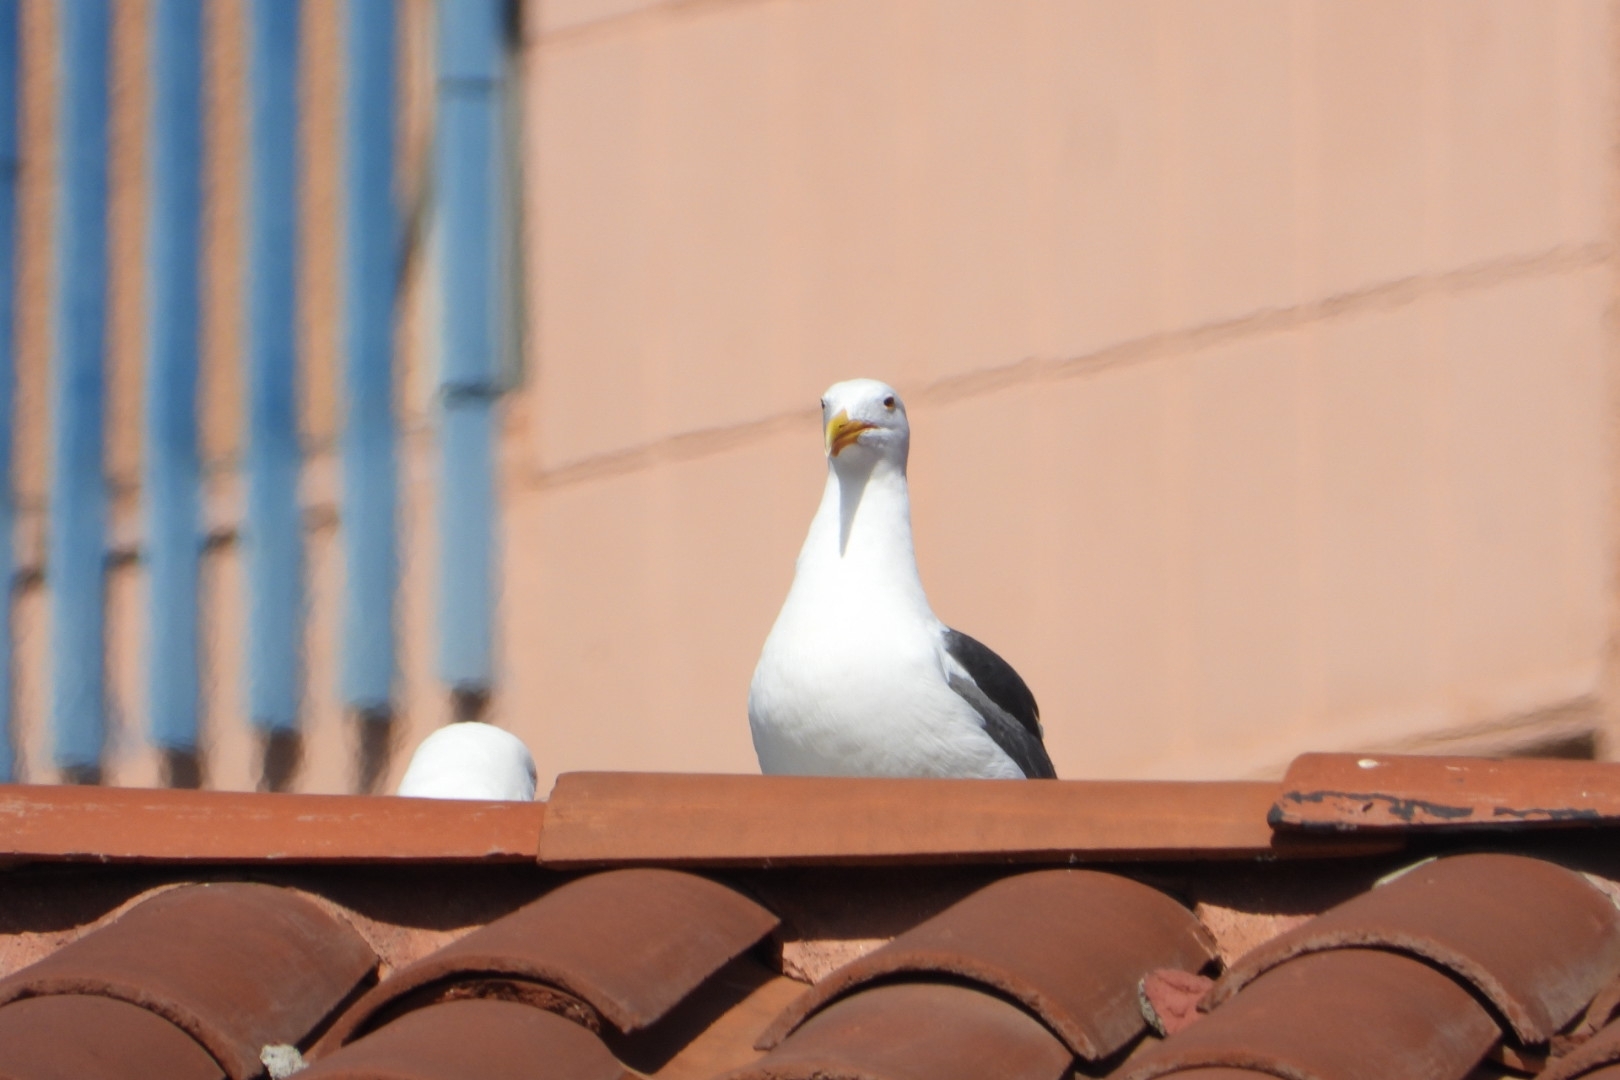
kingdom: Animalia
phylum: Chordata
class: Aves
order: Charadriiformes
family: Laridae
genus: Larus
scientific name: Larus occidentalis
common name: Western gull
